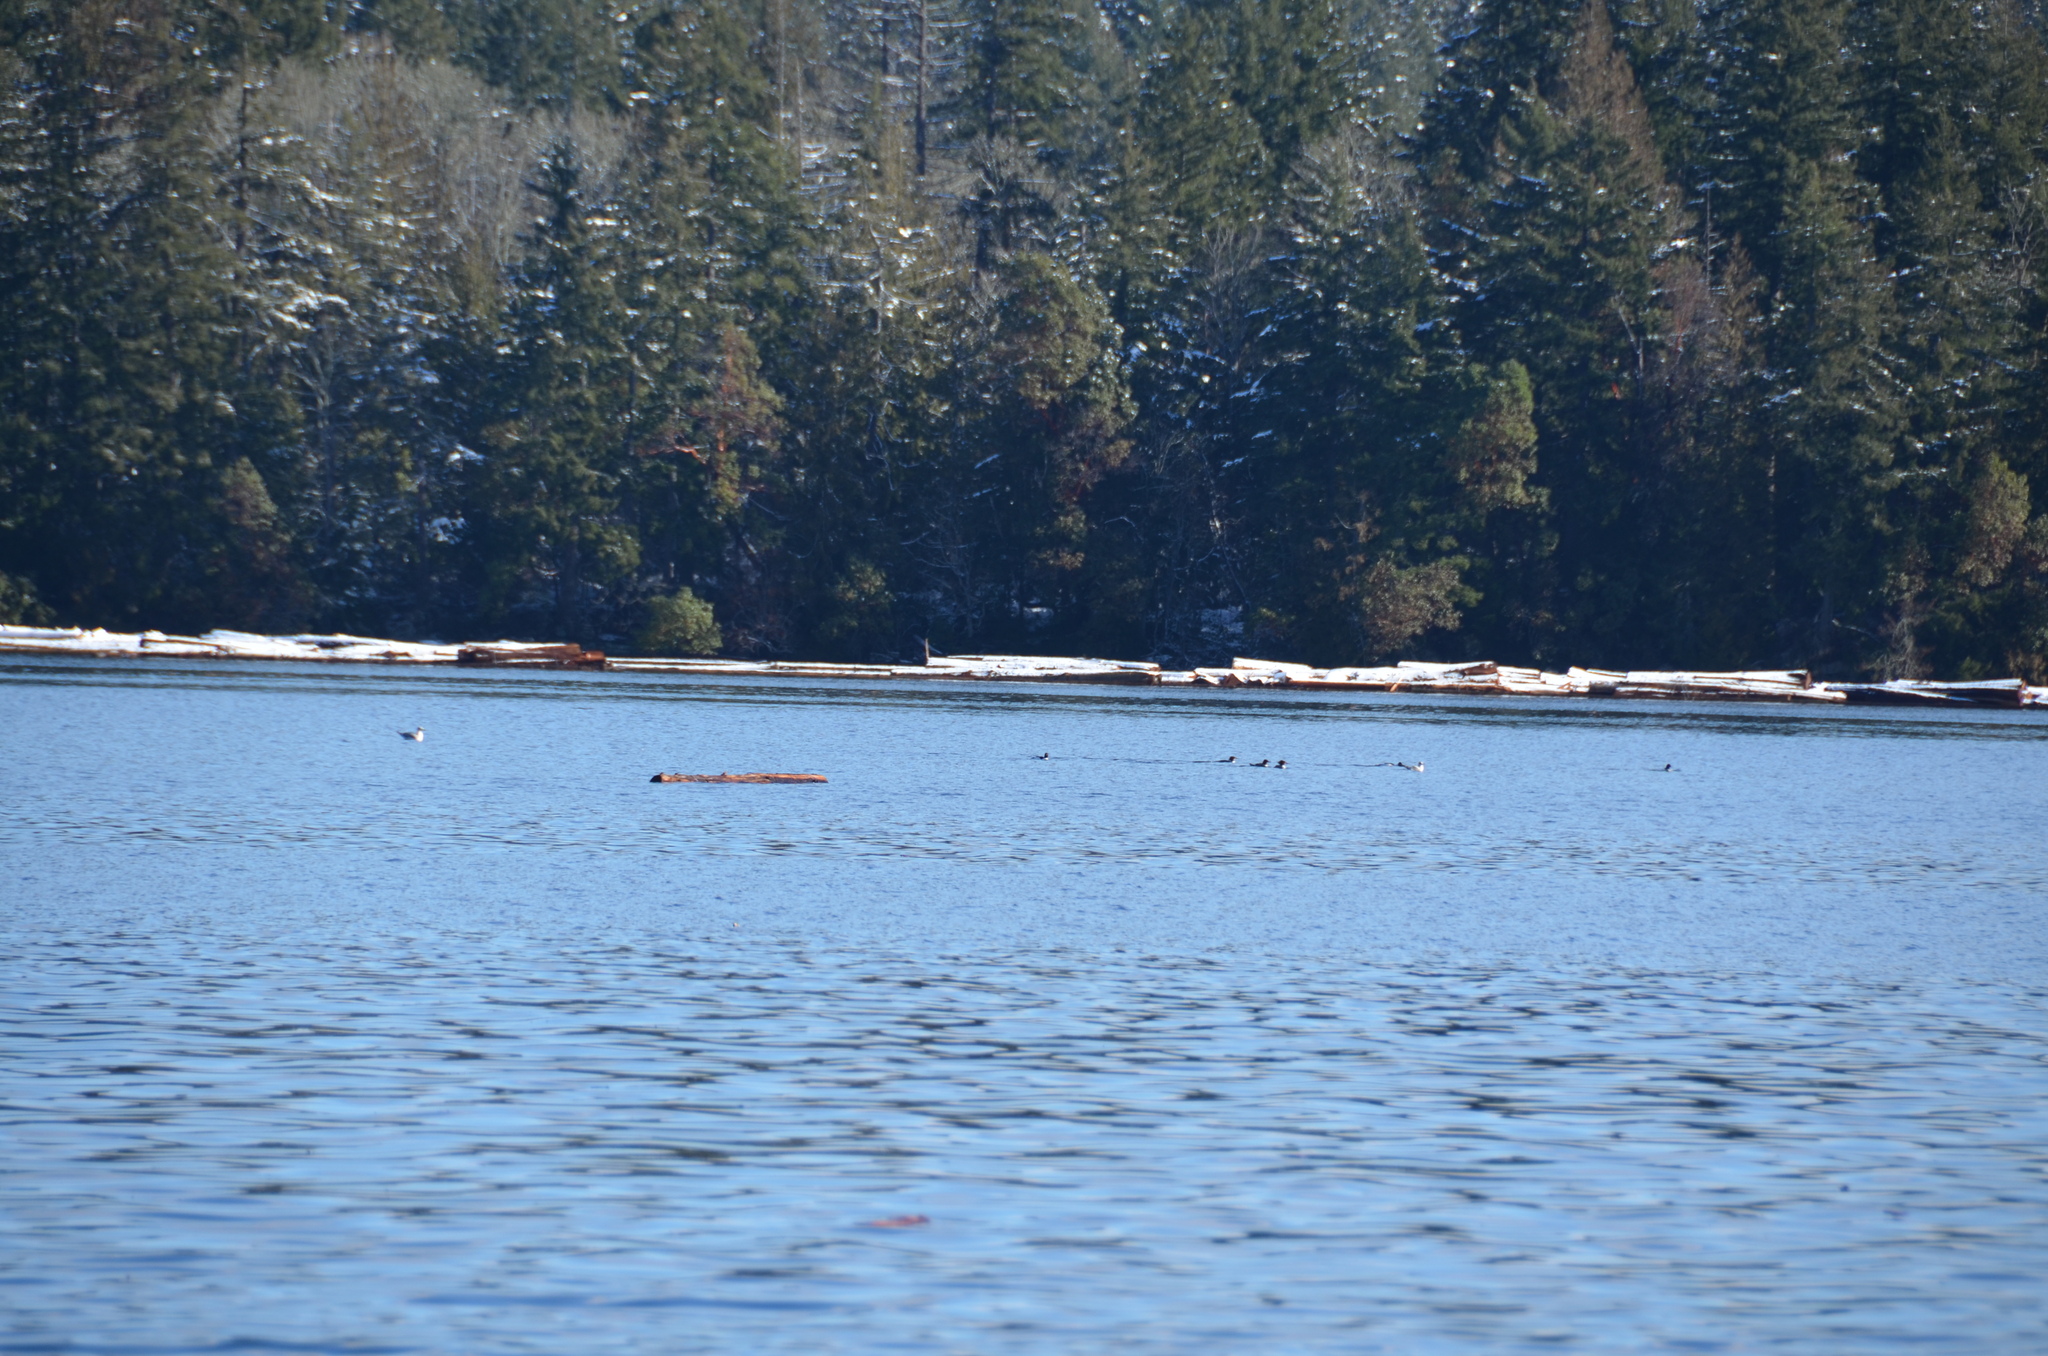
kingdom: Animalia
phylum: Chordata
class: Aves
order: Anseriformes
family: Anatidae
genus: Mergus
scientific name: Mergus merganser
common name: Common merganser
